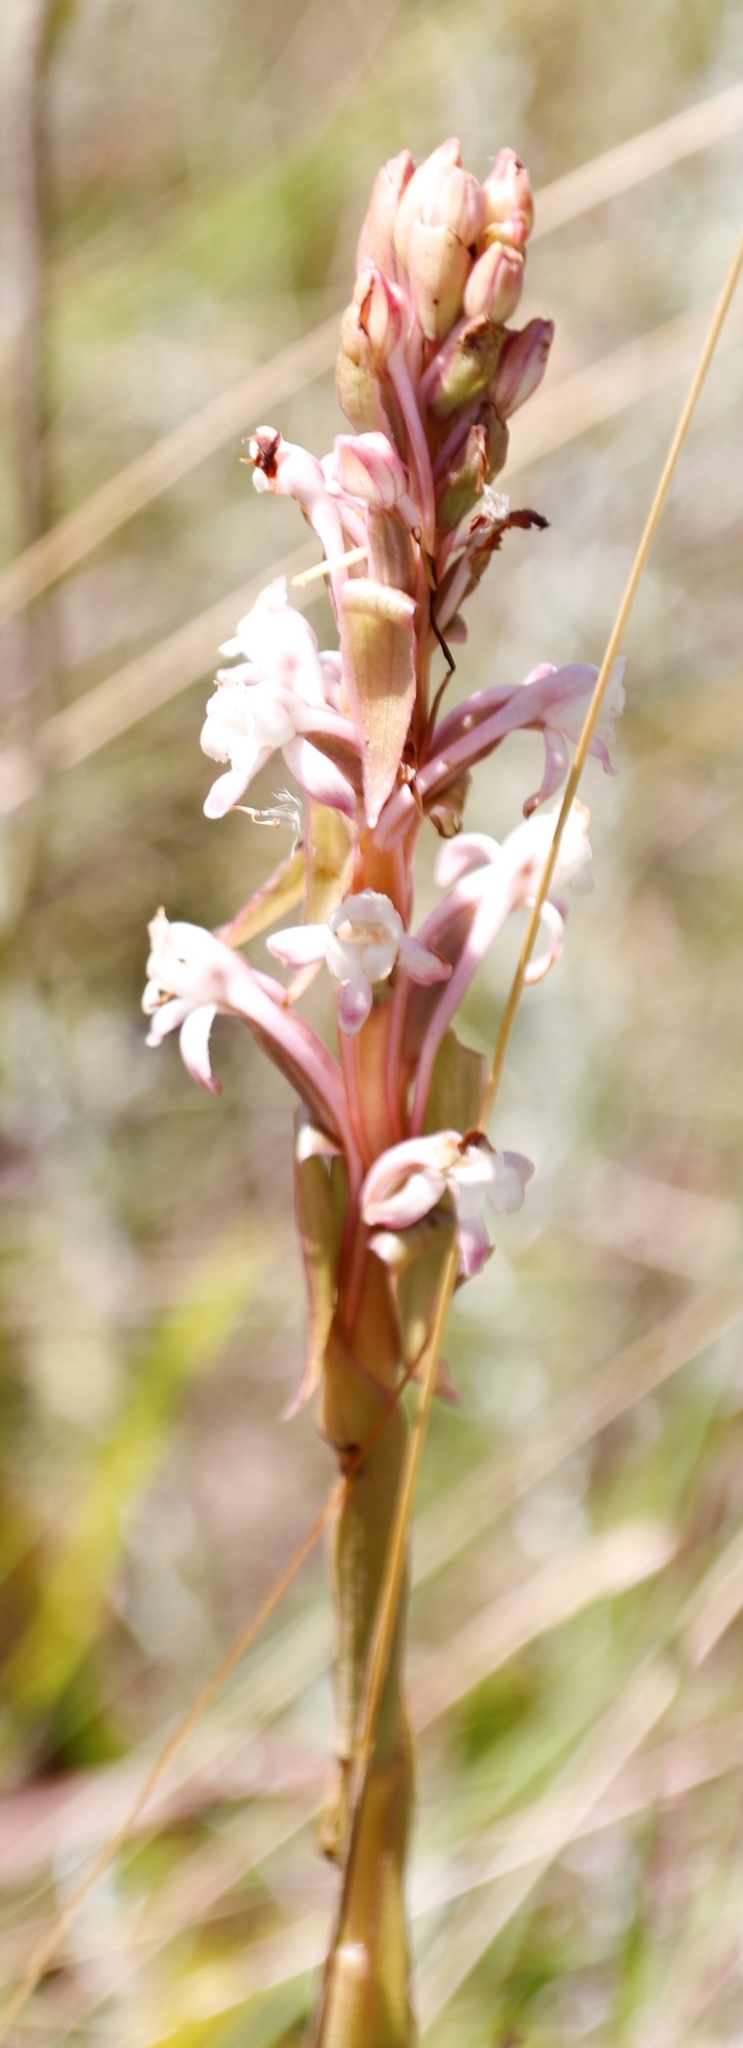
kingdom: Plantae
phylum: Tracheophyta
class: Liliopsida
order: Asparagales
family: Orchidaceae
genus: Satyrium
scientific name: Satyrium longicauda
